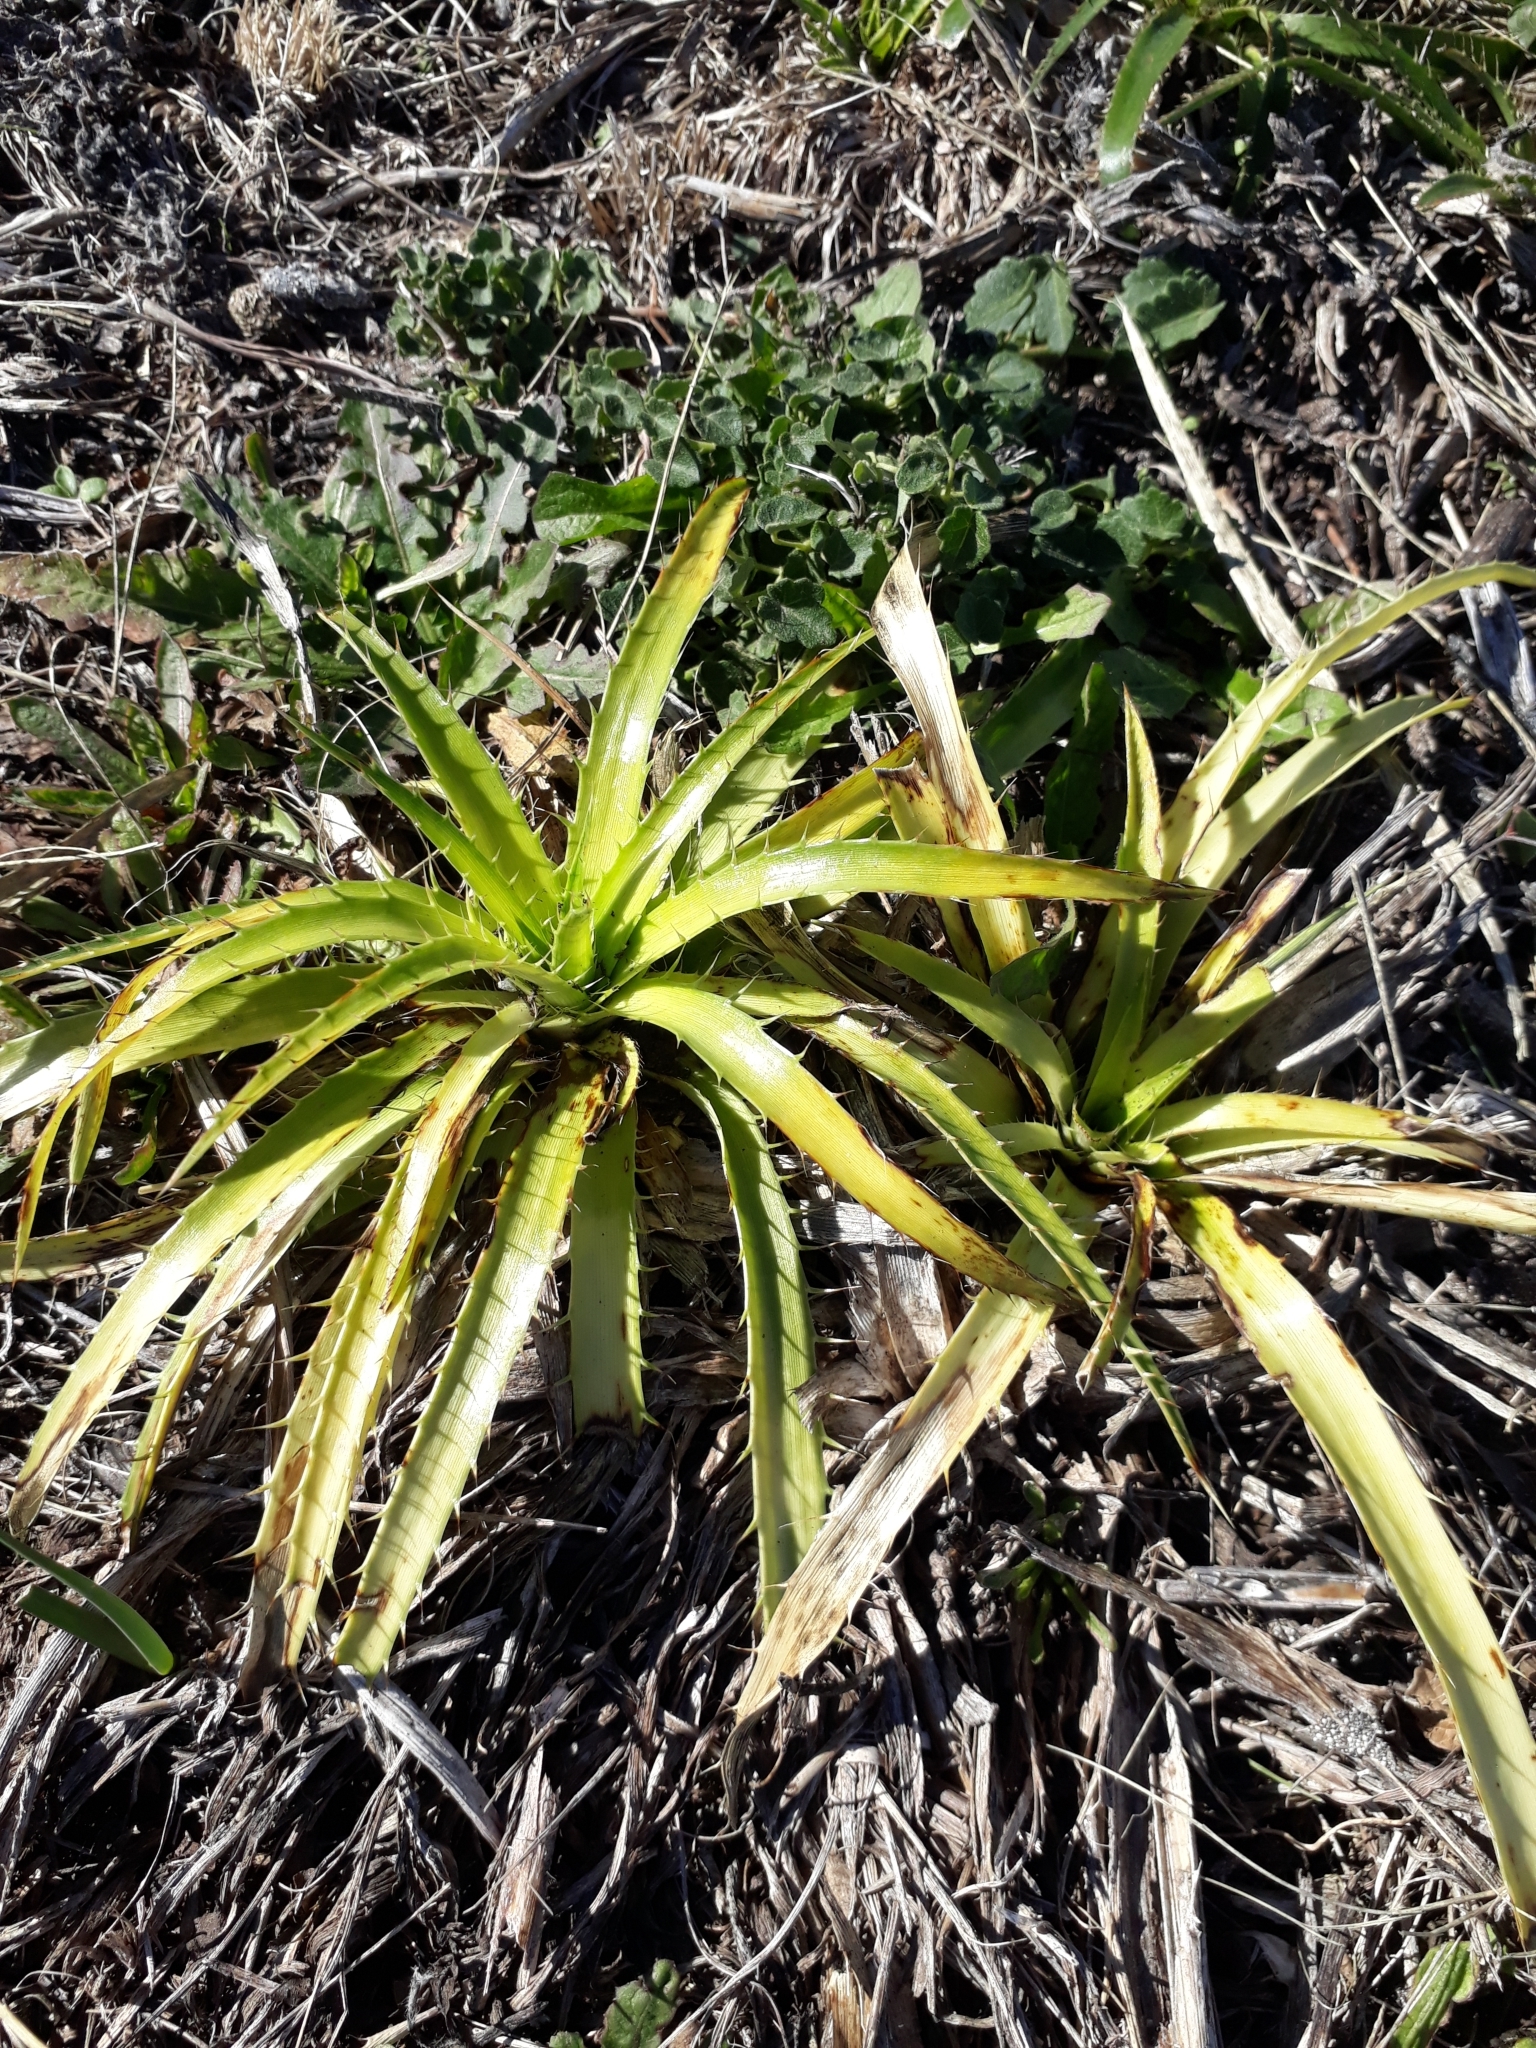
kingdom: Plantae
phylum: Tracheophyta
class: Magnoliopsida
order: Apiales
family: Apiaceae
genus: Eryngium
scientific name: Eryngium humboldtii
